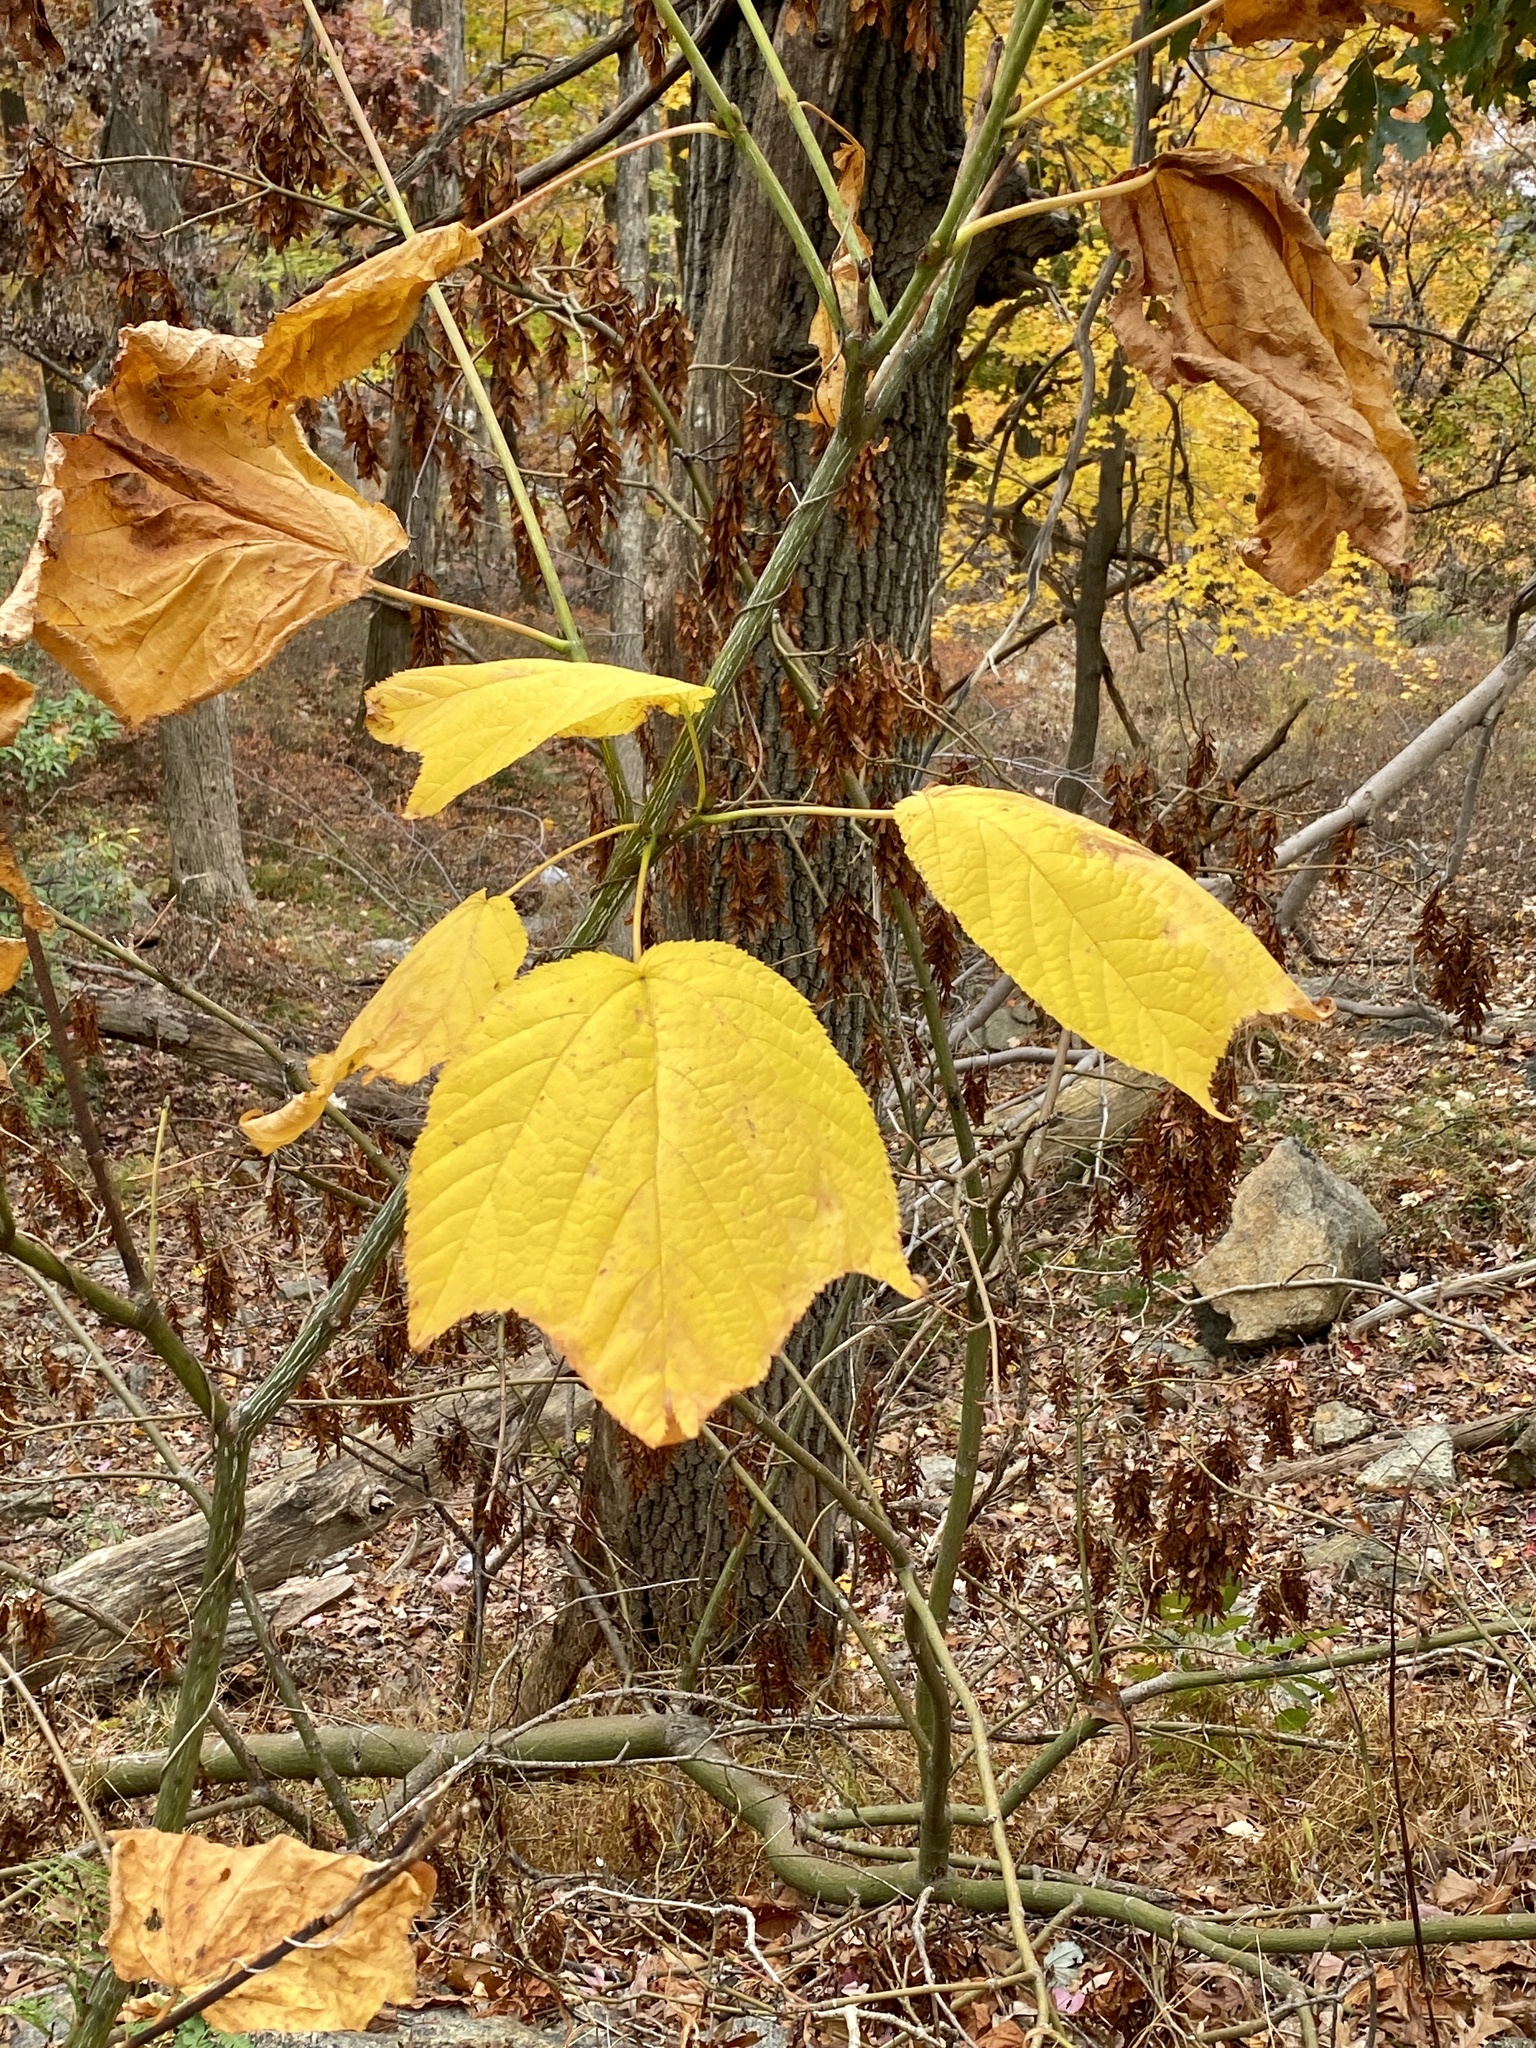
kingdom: Plantae
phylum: Tracheophyta
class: Magnoliopsida
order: Sapindales
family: Sapindaceae
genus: Acer
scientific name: Acer pensylvanicum
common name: Moosewood
